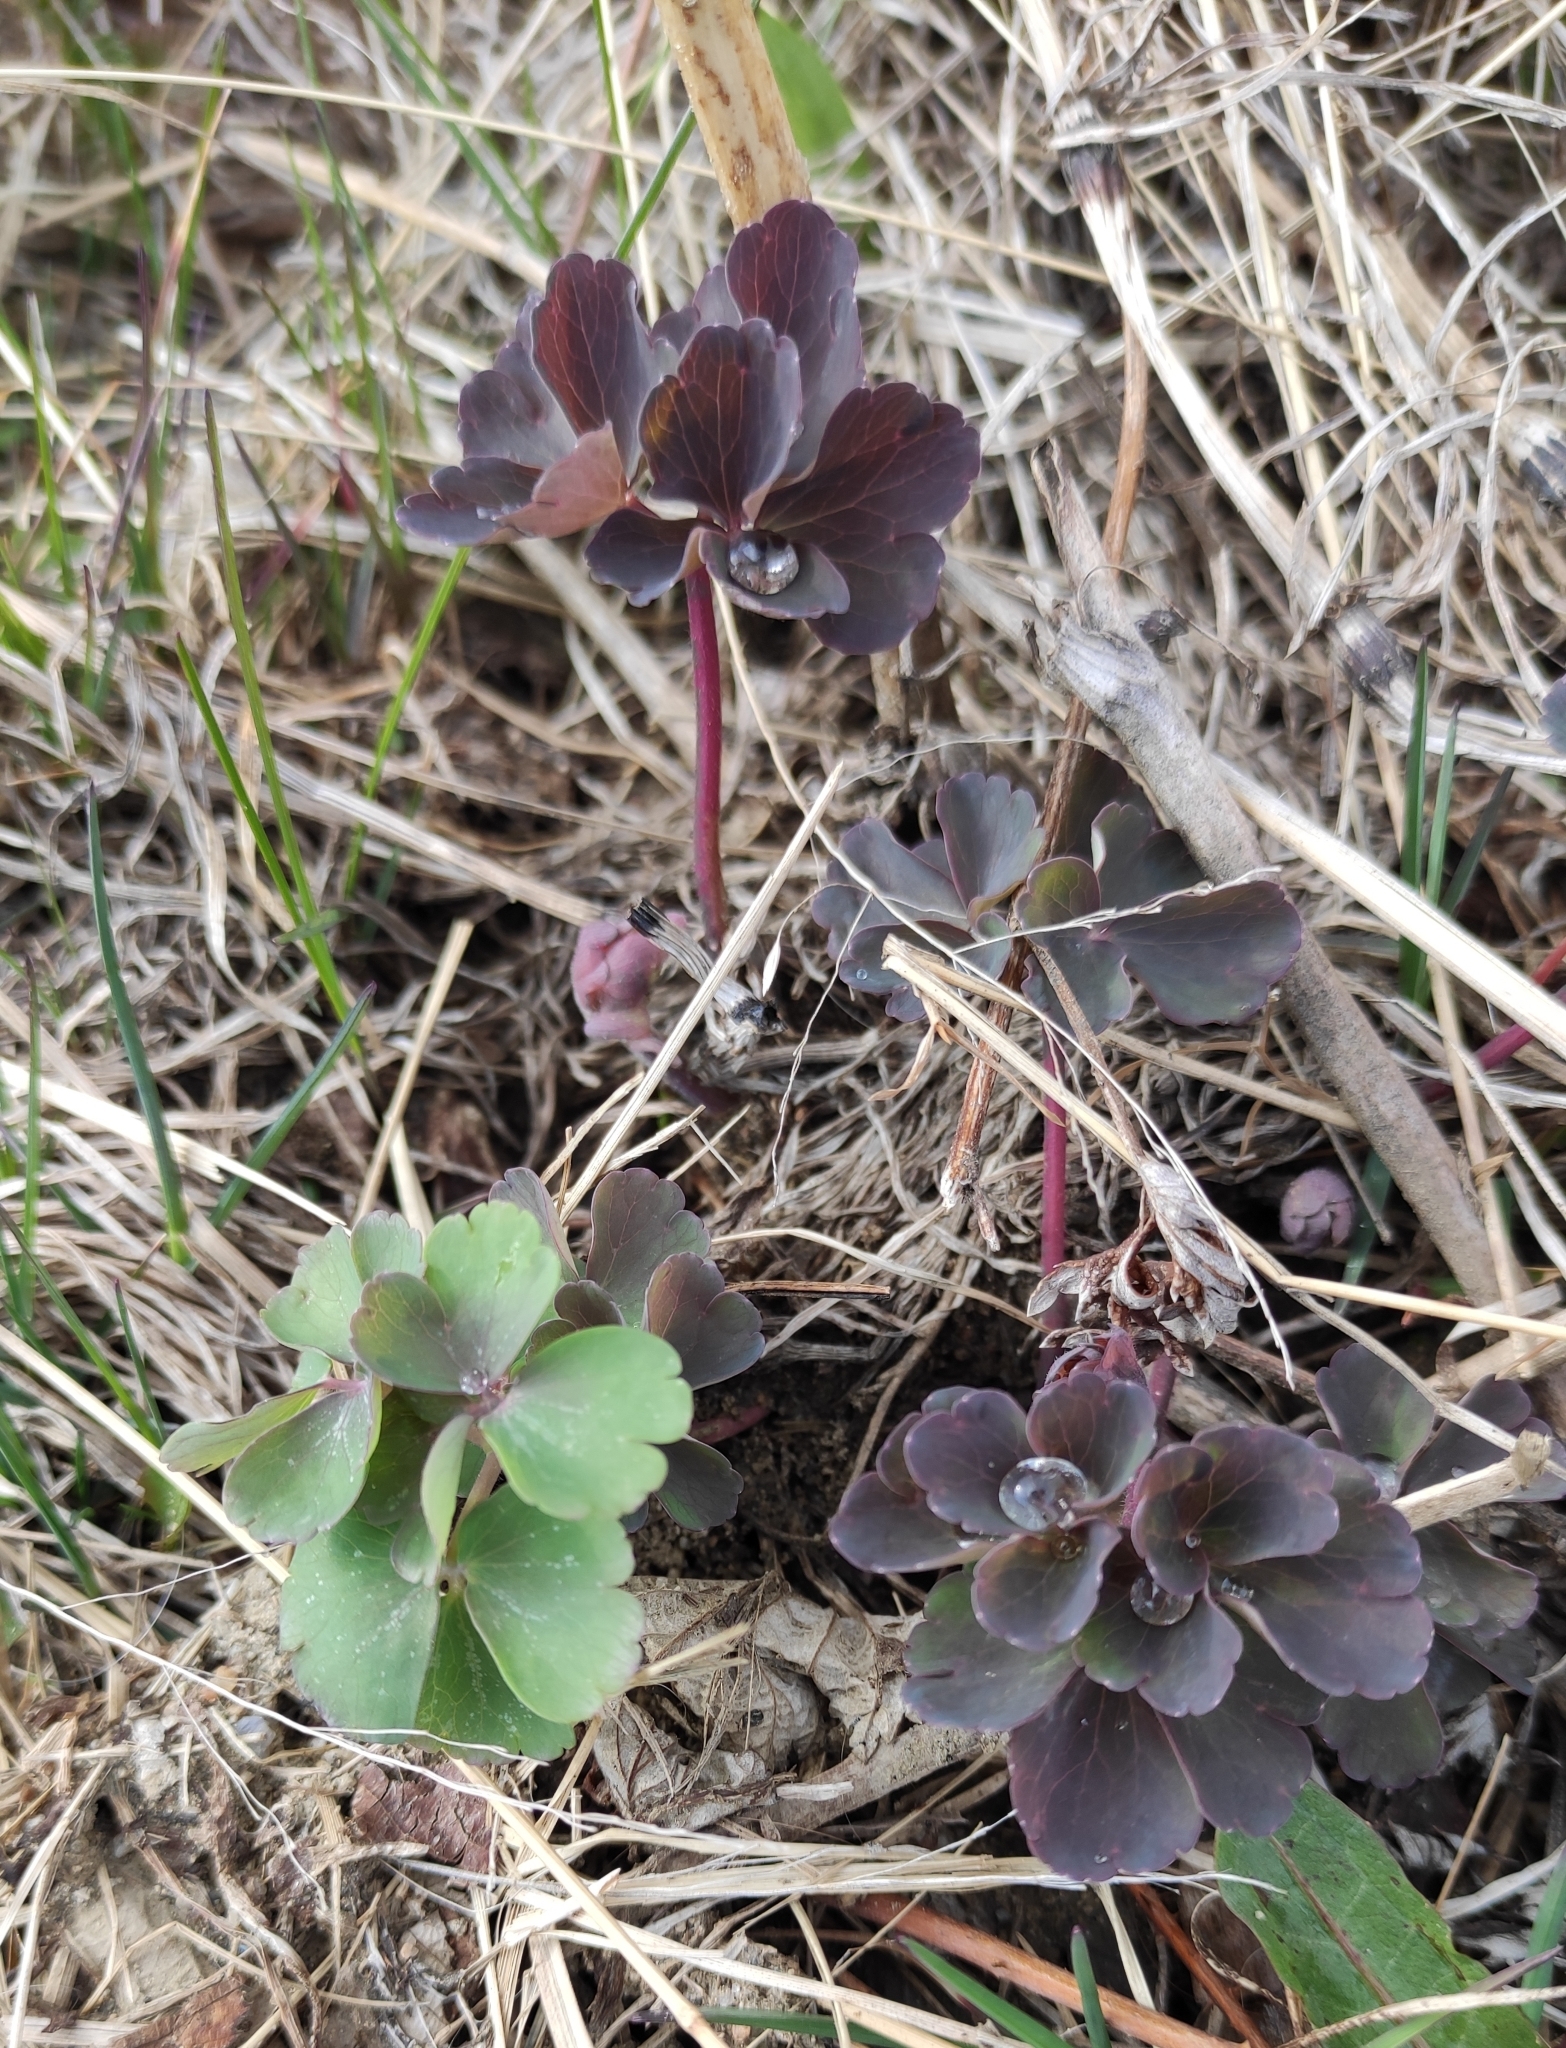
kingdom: Plantae
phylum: Tracheophyta
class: Magnoliopsida
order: Ranunculales
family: Ranunculaceae
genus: Aquilegia
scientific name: Aquilegia sibirica
